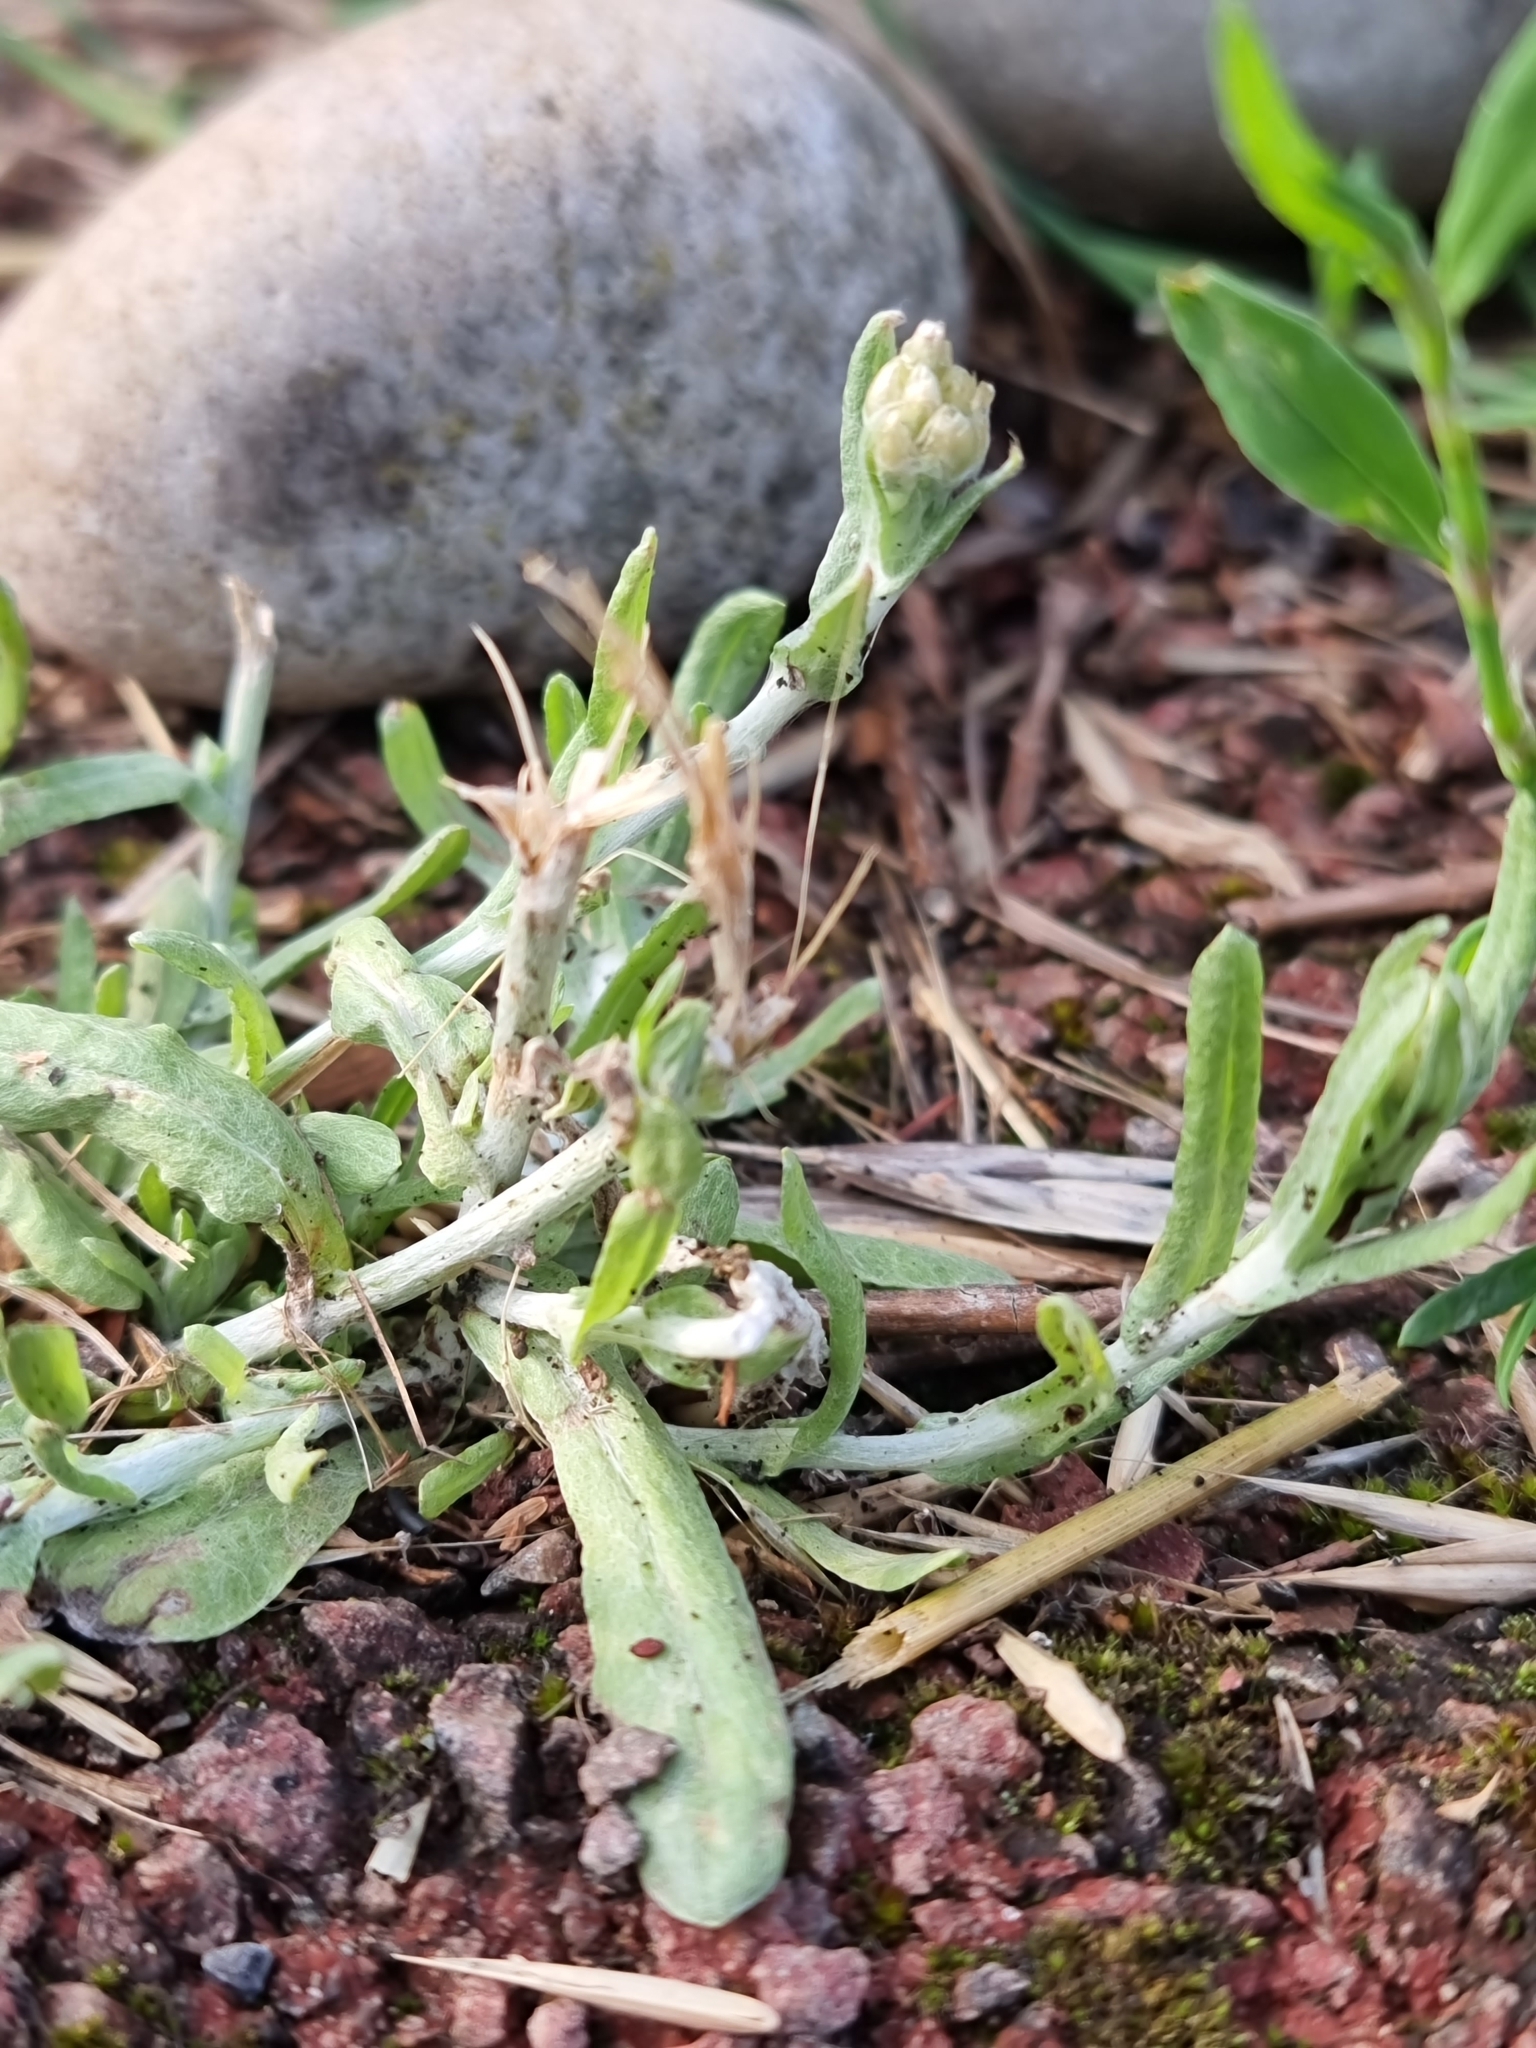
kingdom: Plantae
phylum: Tracheophyta
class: Magnoliopsida
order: Asterales
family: Asteraceae
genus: Helichrysum
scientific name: Helichrysum luteoalbum
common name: Daisy
